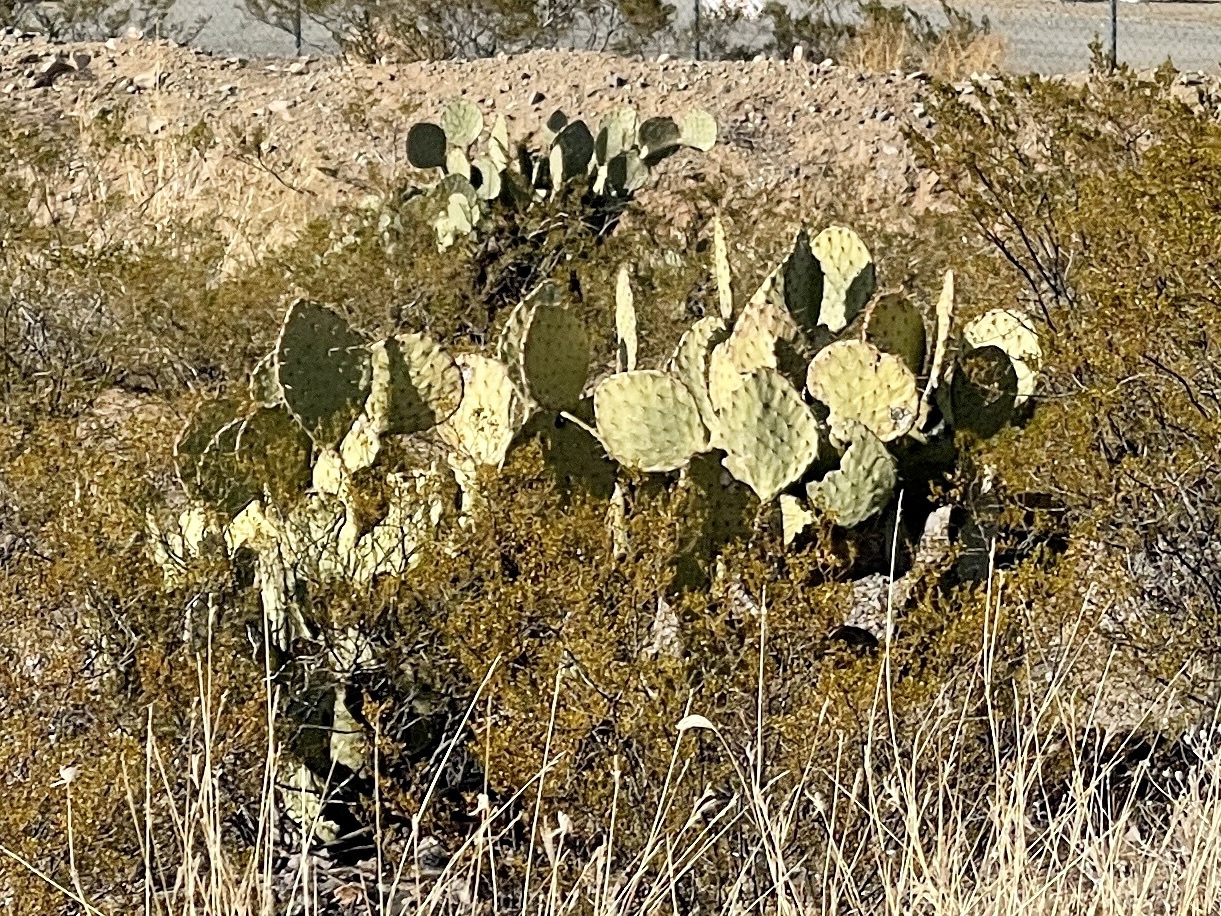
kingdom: Plantae
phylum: Tracheophyta
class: Magnoliopsida
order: Caryophyllales
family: Cactaceae
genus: Opuntia
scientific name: Opuntia engelmannii
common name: Cactus-apple
